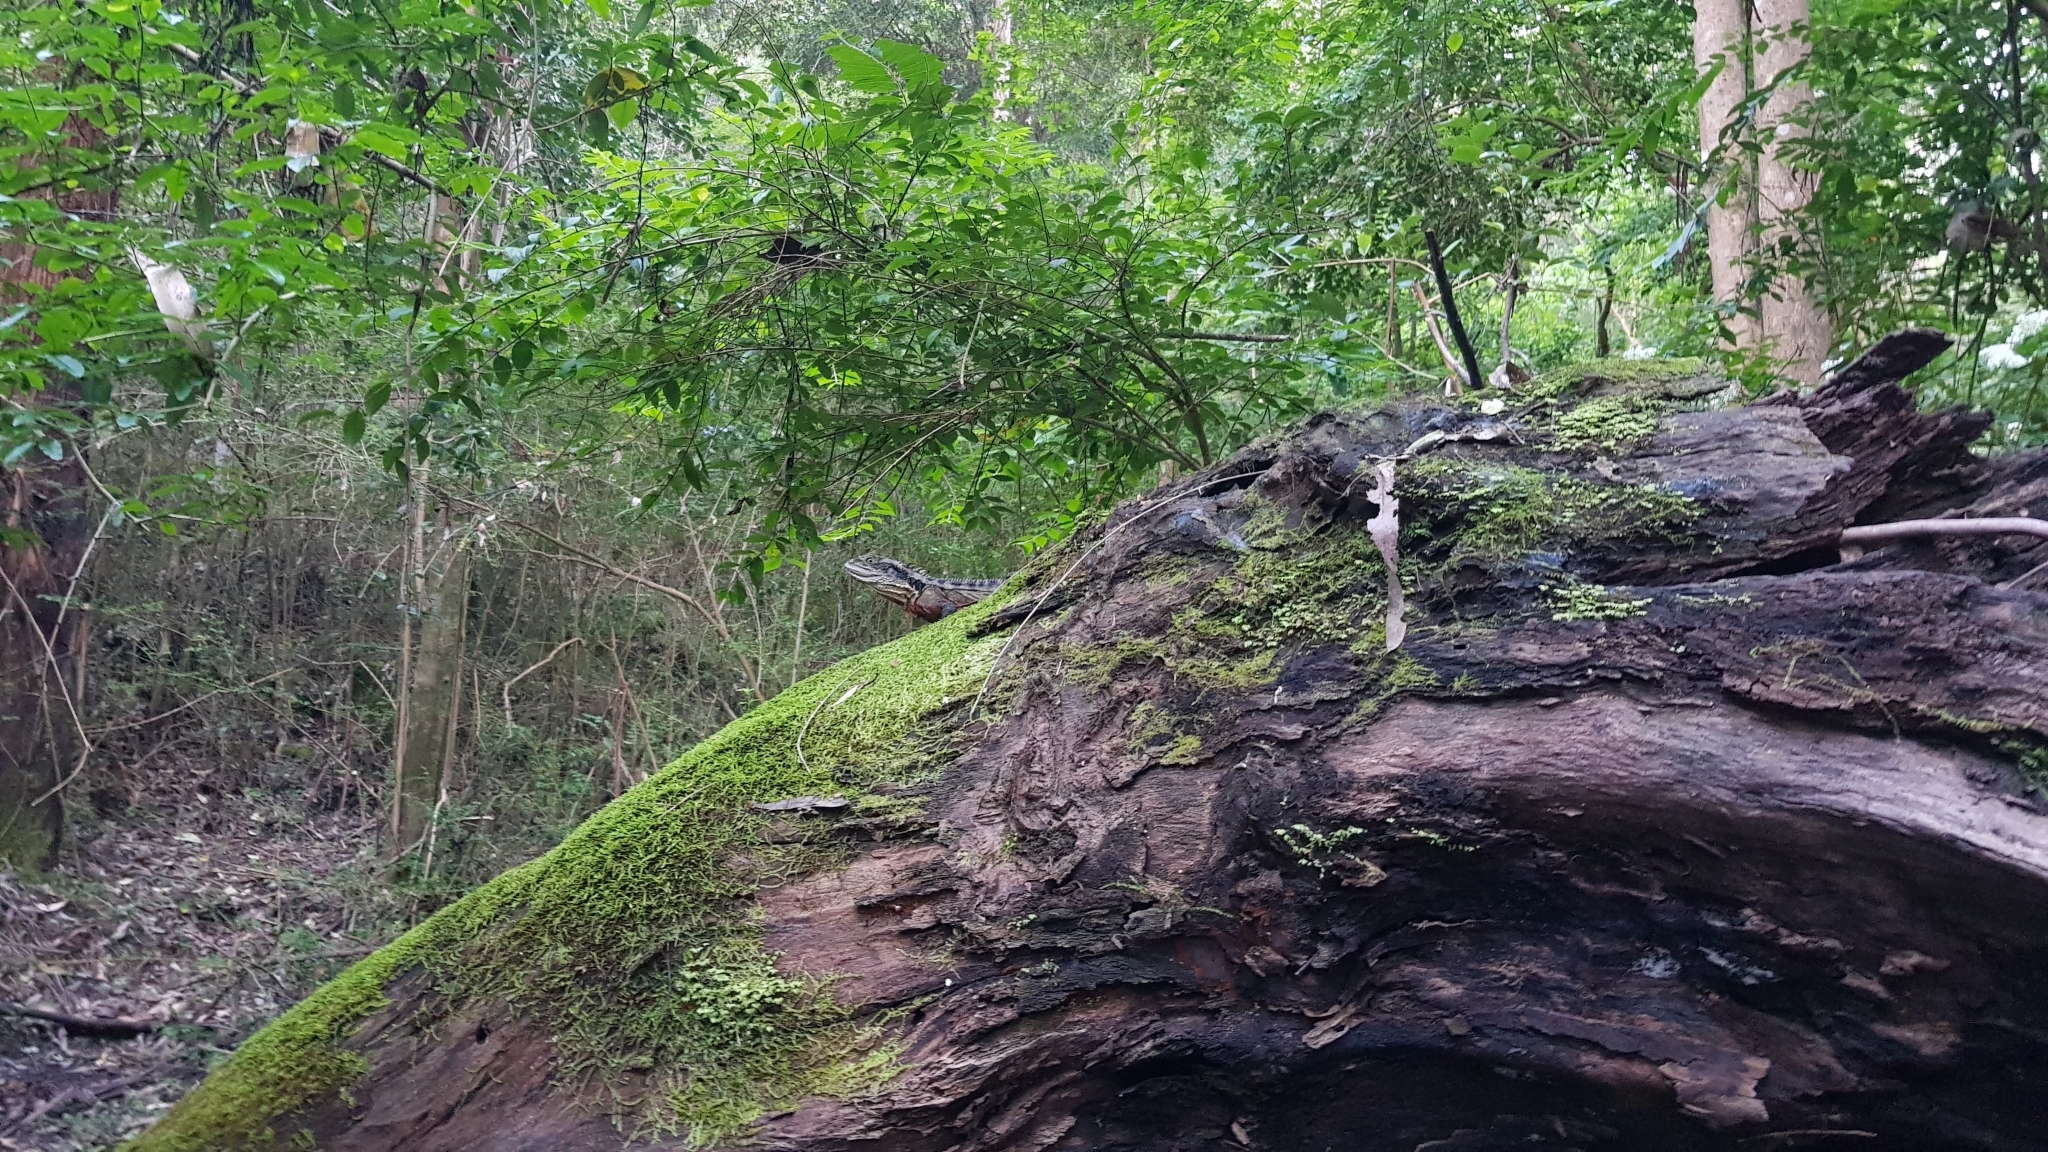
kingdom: Animalia
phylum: Chordata
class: Squamata
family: Agamidae
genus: Intellagama
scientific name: Intellagama lesueurii
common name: Eastern water dragon
